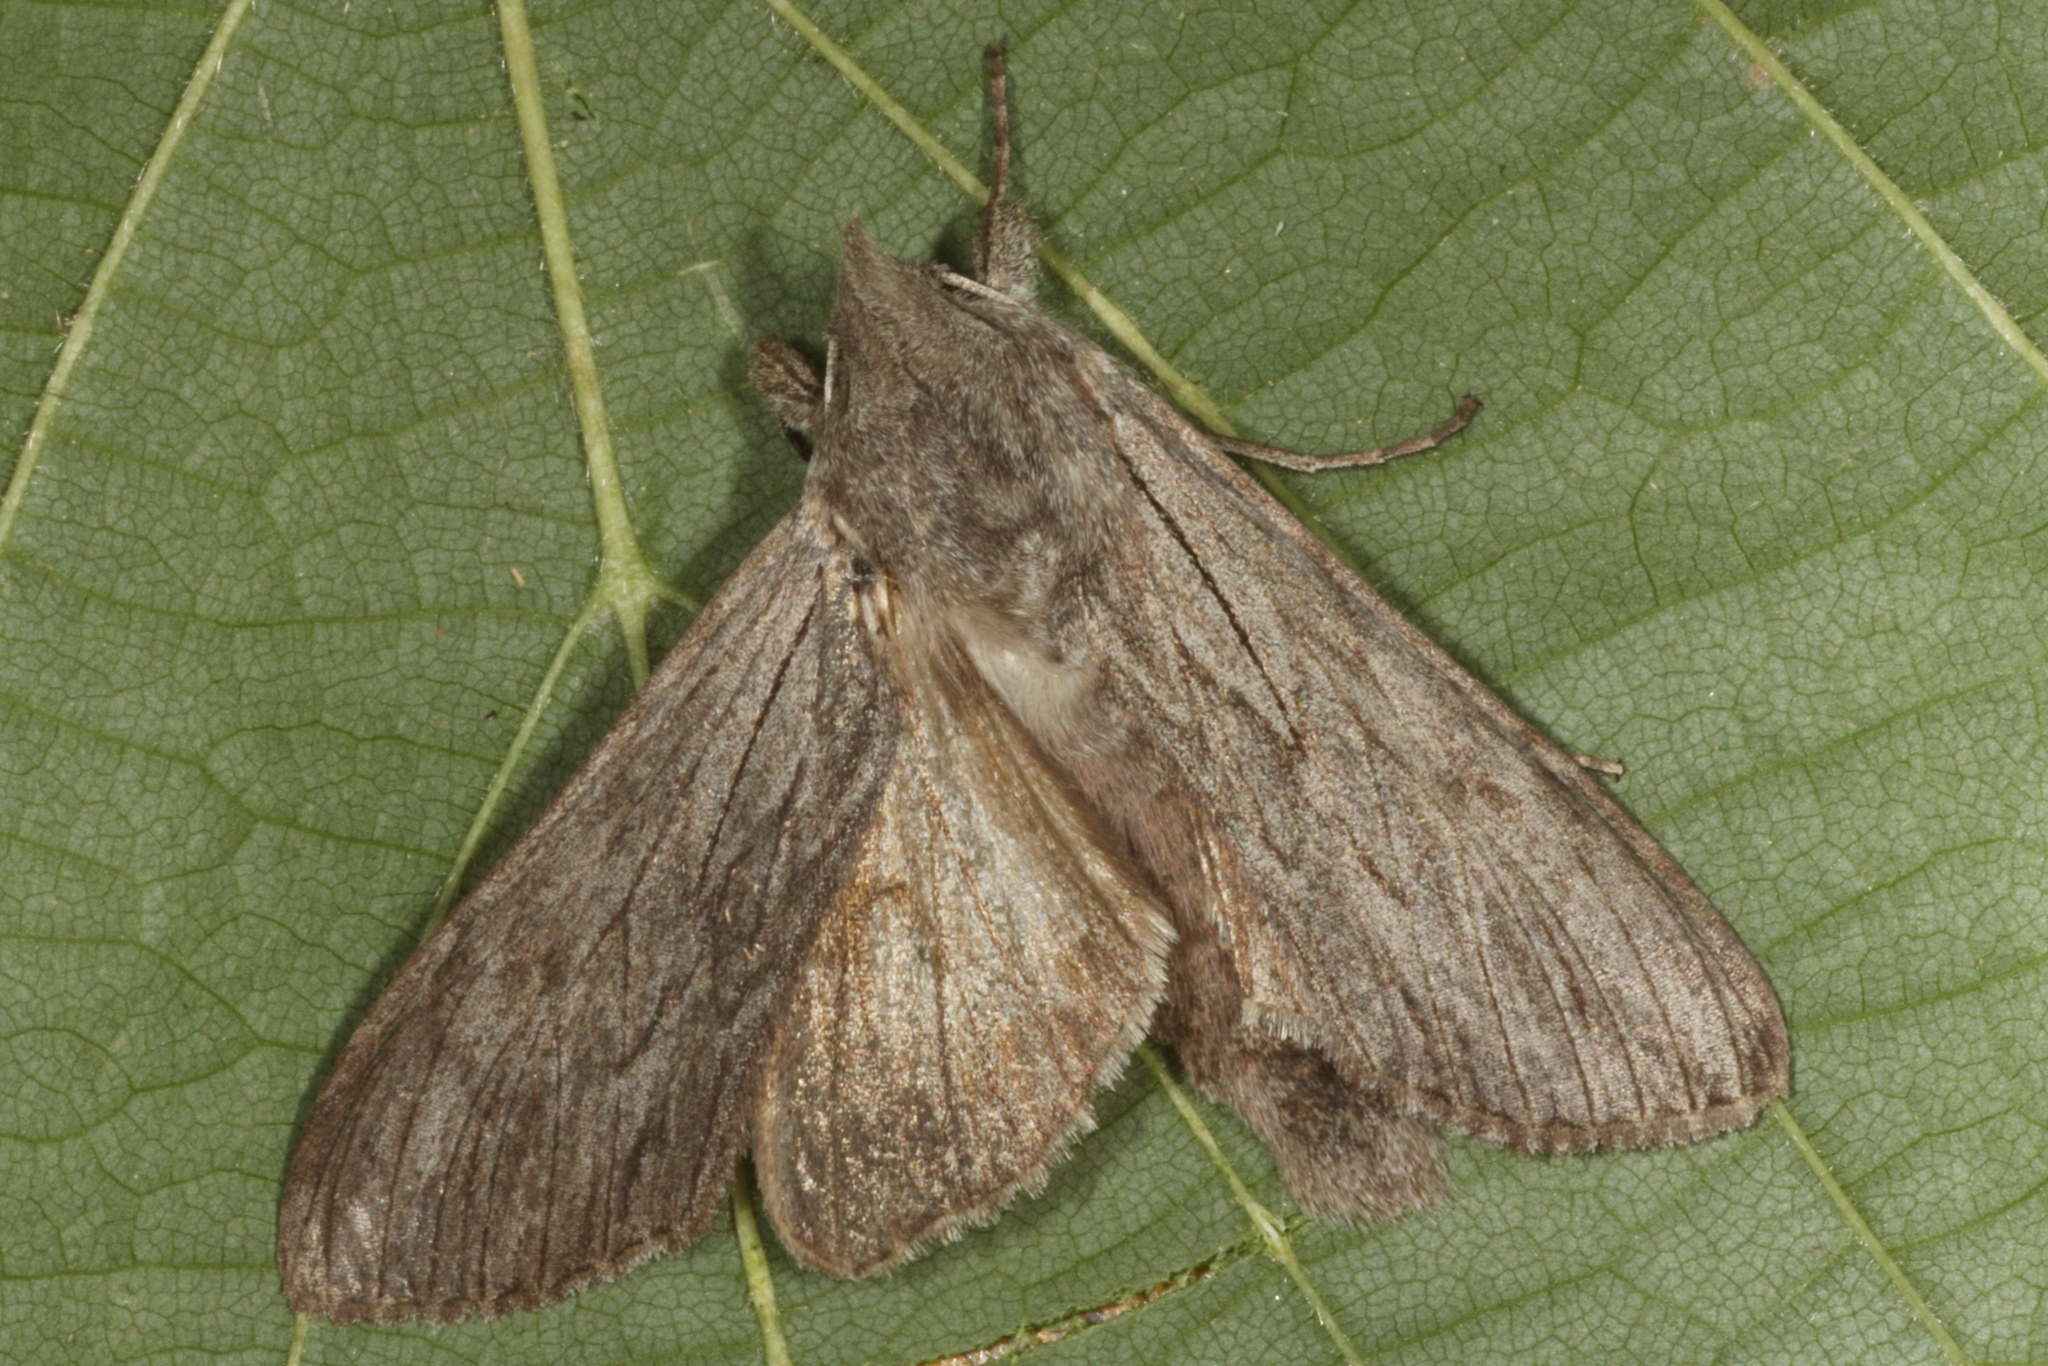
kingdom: Animalia
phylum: Arthropoda
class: Insecta
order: Lepidoptera
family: Noctuidae
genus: Cucullia
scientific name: Cucullia lactucae
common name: Lettuce shark
